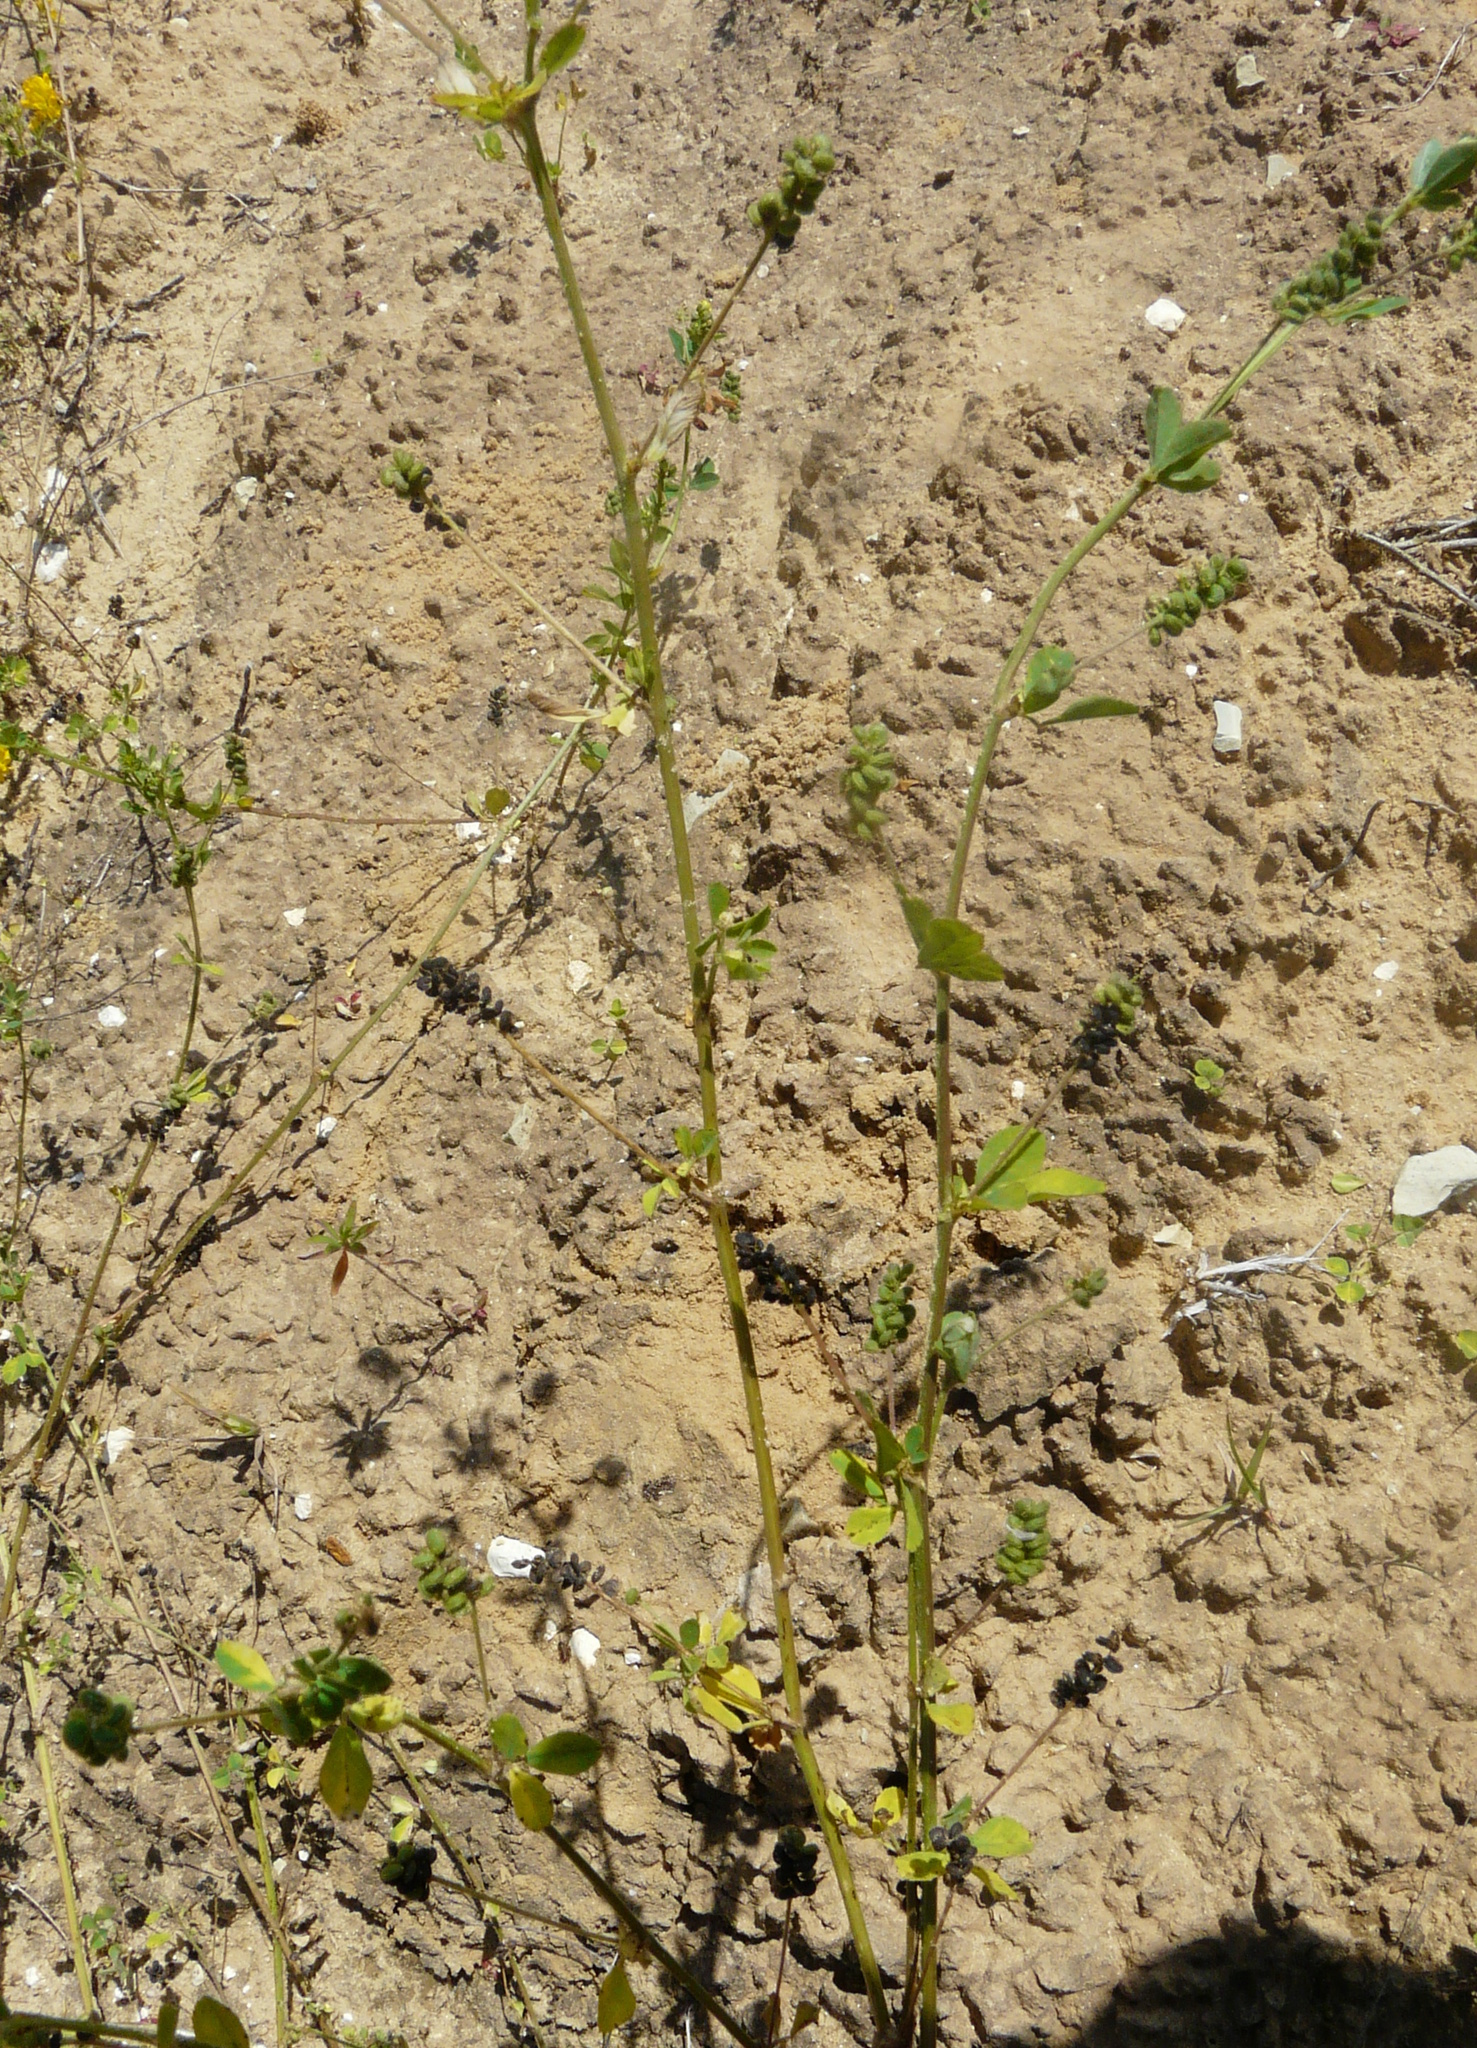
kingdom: Plantae
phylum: Tracheophyta
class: Magnoliopsida
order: Fabales
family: Fabaceae
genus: Medicago
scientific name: Medicago lupulina
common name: Black medick
